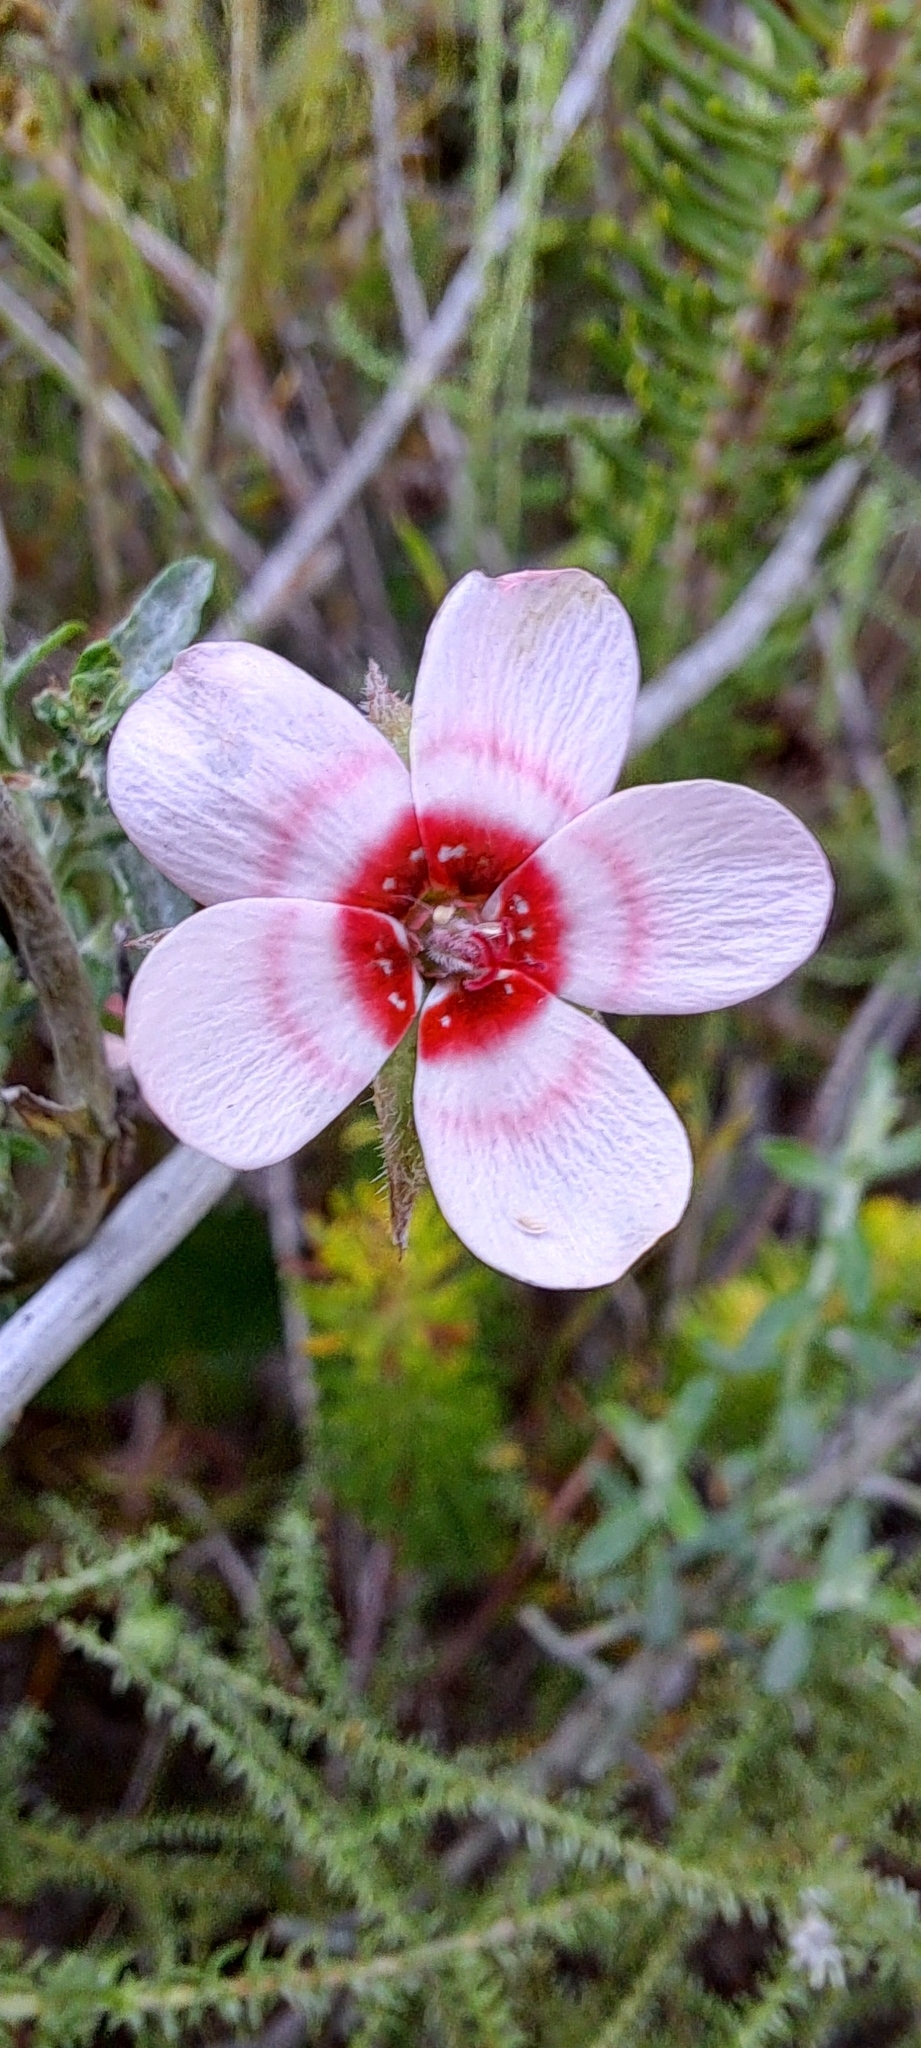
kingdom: Plantae
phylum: Tracheophyta
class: Magnoliopsida
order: Geraniales
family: Geraniaceae
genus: Pelargonium
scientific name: Pelargonium incarnatum
